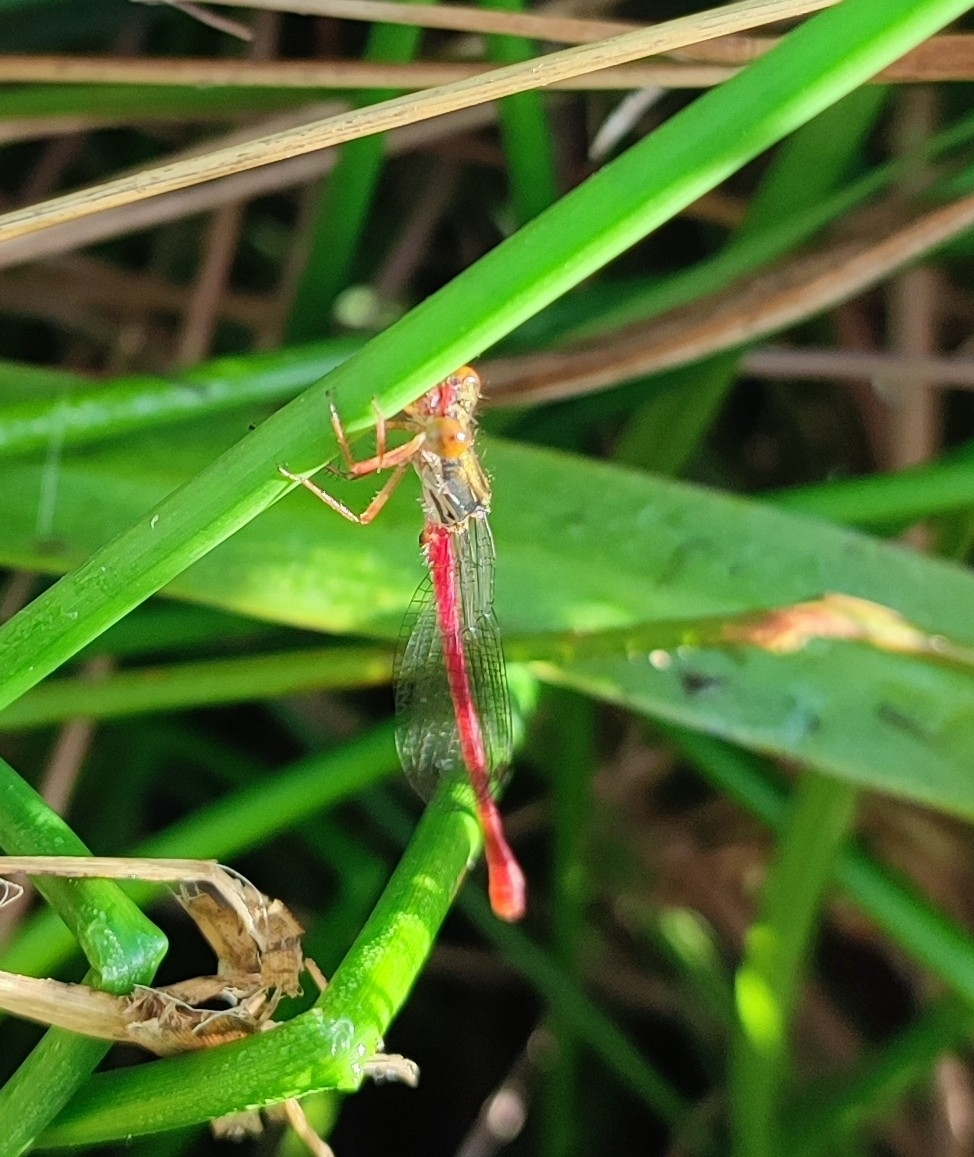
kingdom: Animalia
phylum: Arthropoda
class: Insecta
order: Odonata
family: Coenagrionidae
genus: Ceriagrion
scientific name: Ceriagrion tenellum
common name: Small red damselfly
